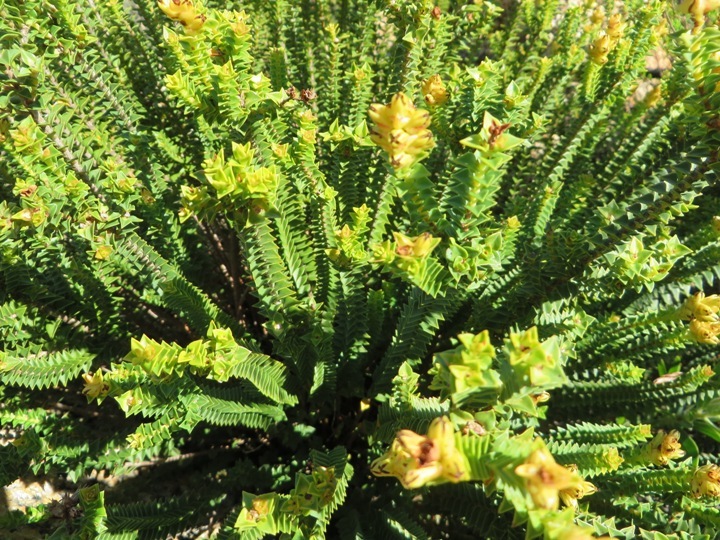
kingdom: Plantae
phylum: Tracheophyta
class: Magnoliopsida
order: Myrtales
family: Penaeaceae
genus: Penaea
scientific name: Penaea mucronata
